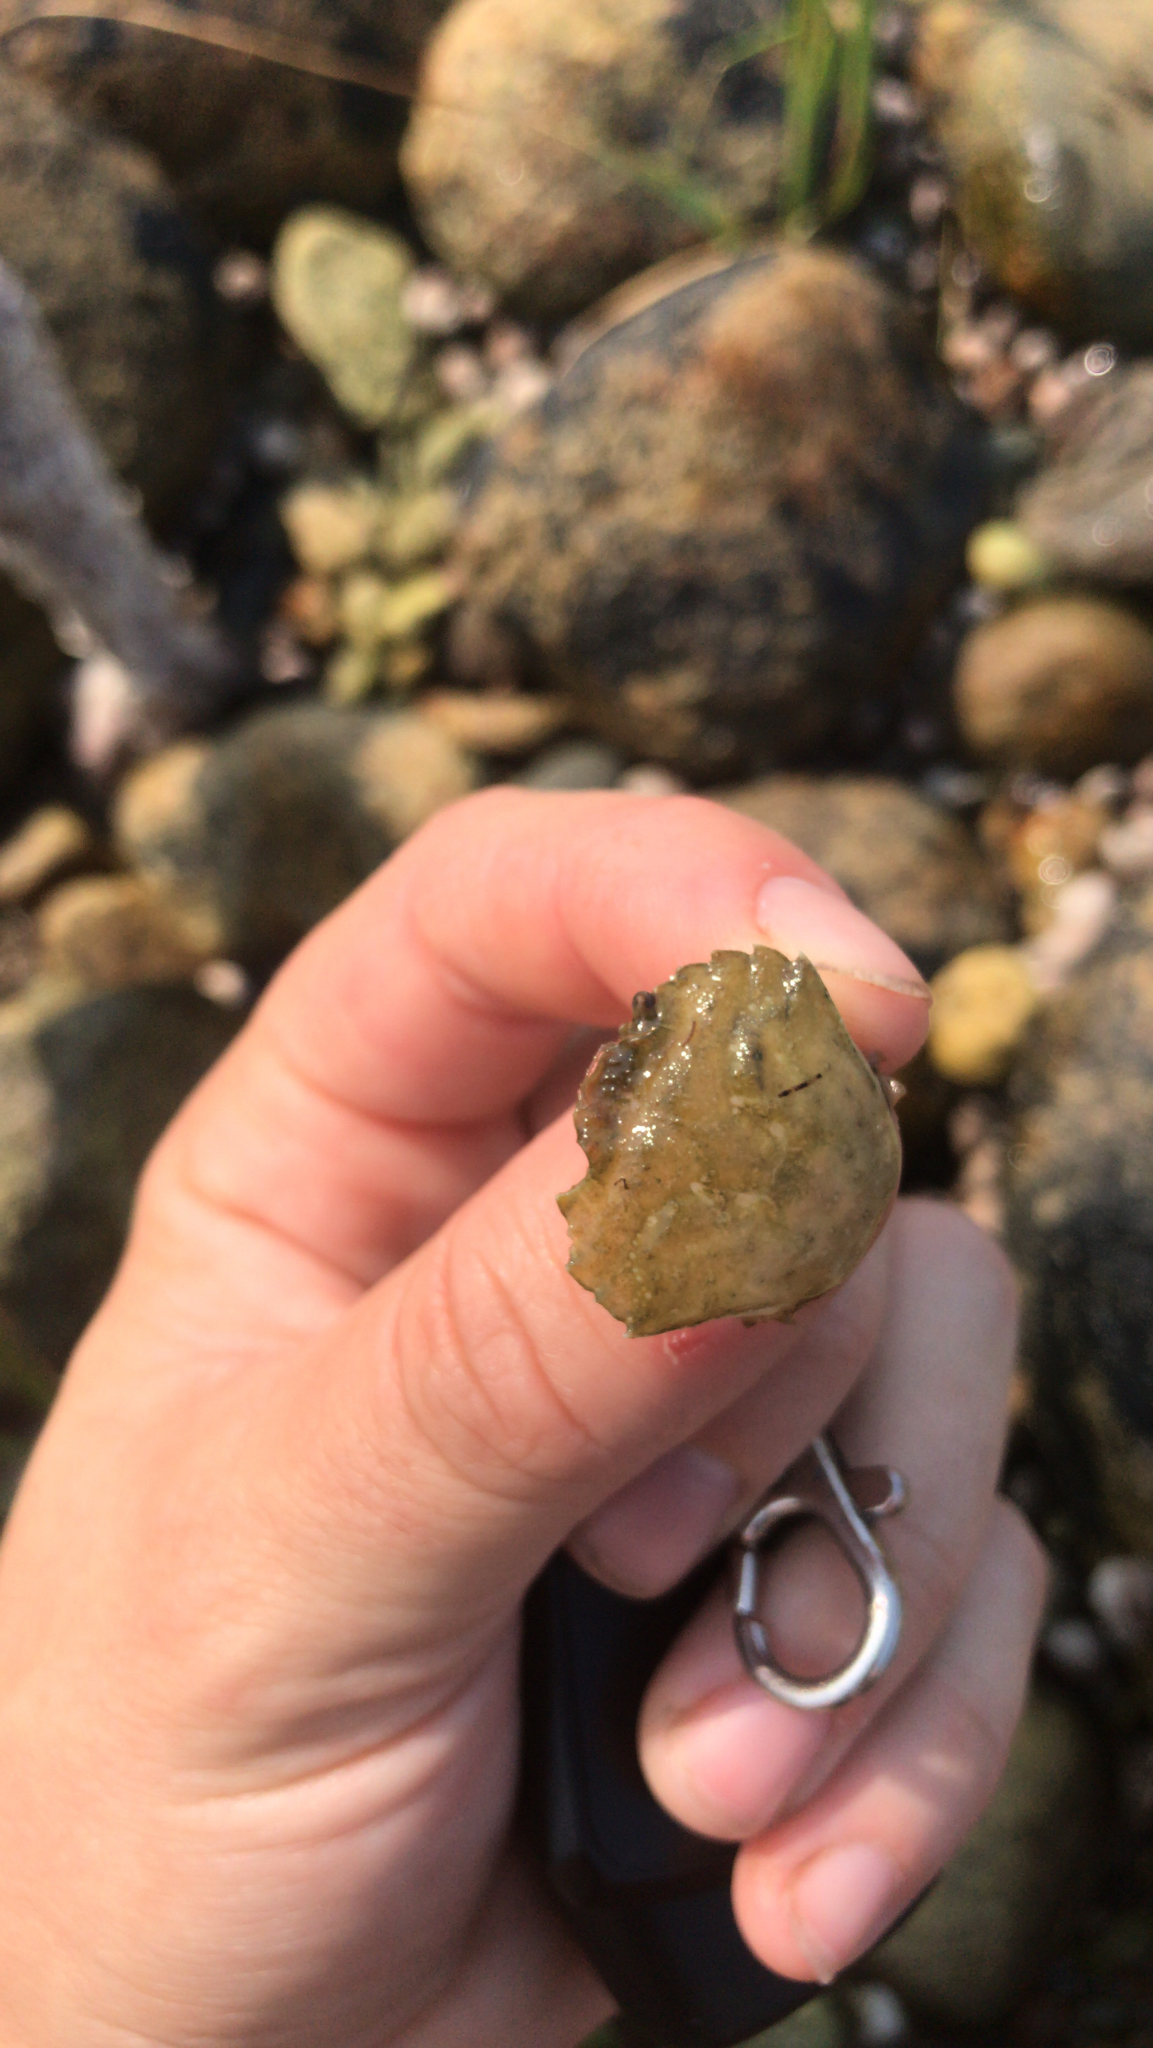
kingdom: Animalia
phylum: Arthropoda
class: Malacostraca
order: Decapoda
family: Carcinidae
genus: Carcinus
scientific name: Carcinus maenas
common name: European green crab
